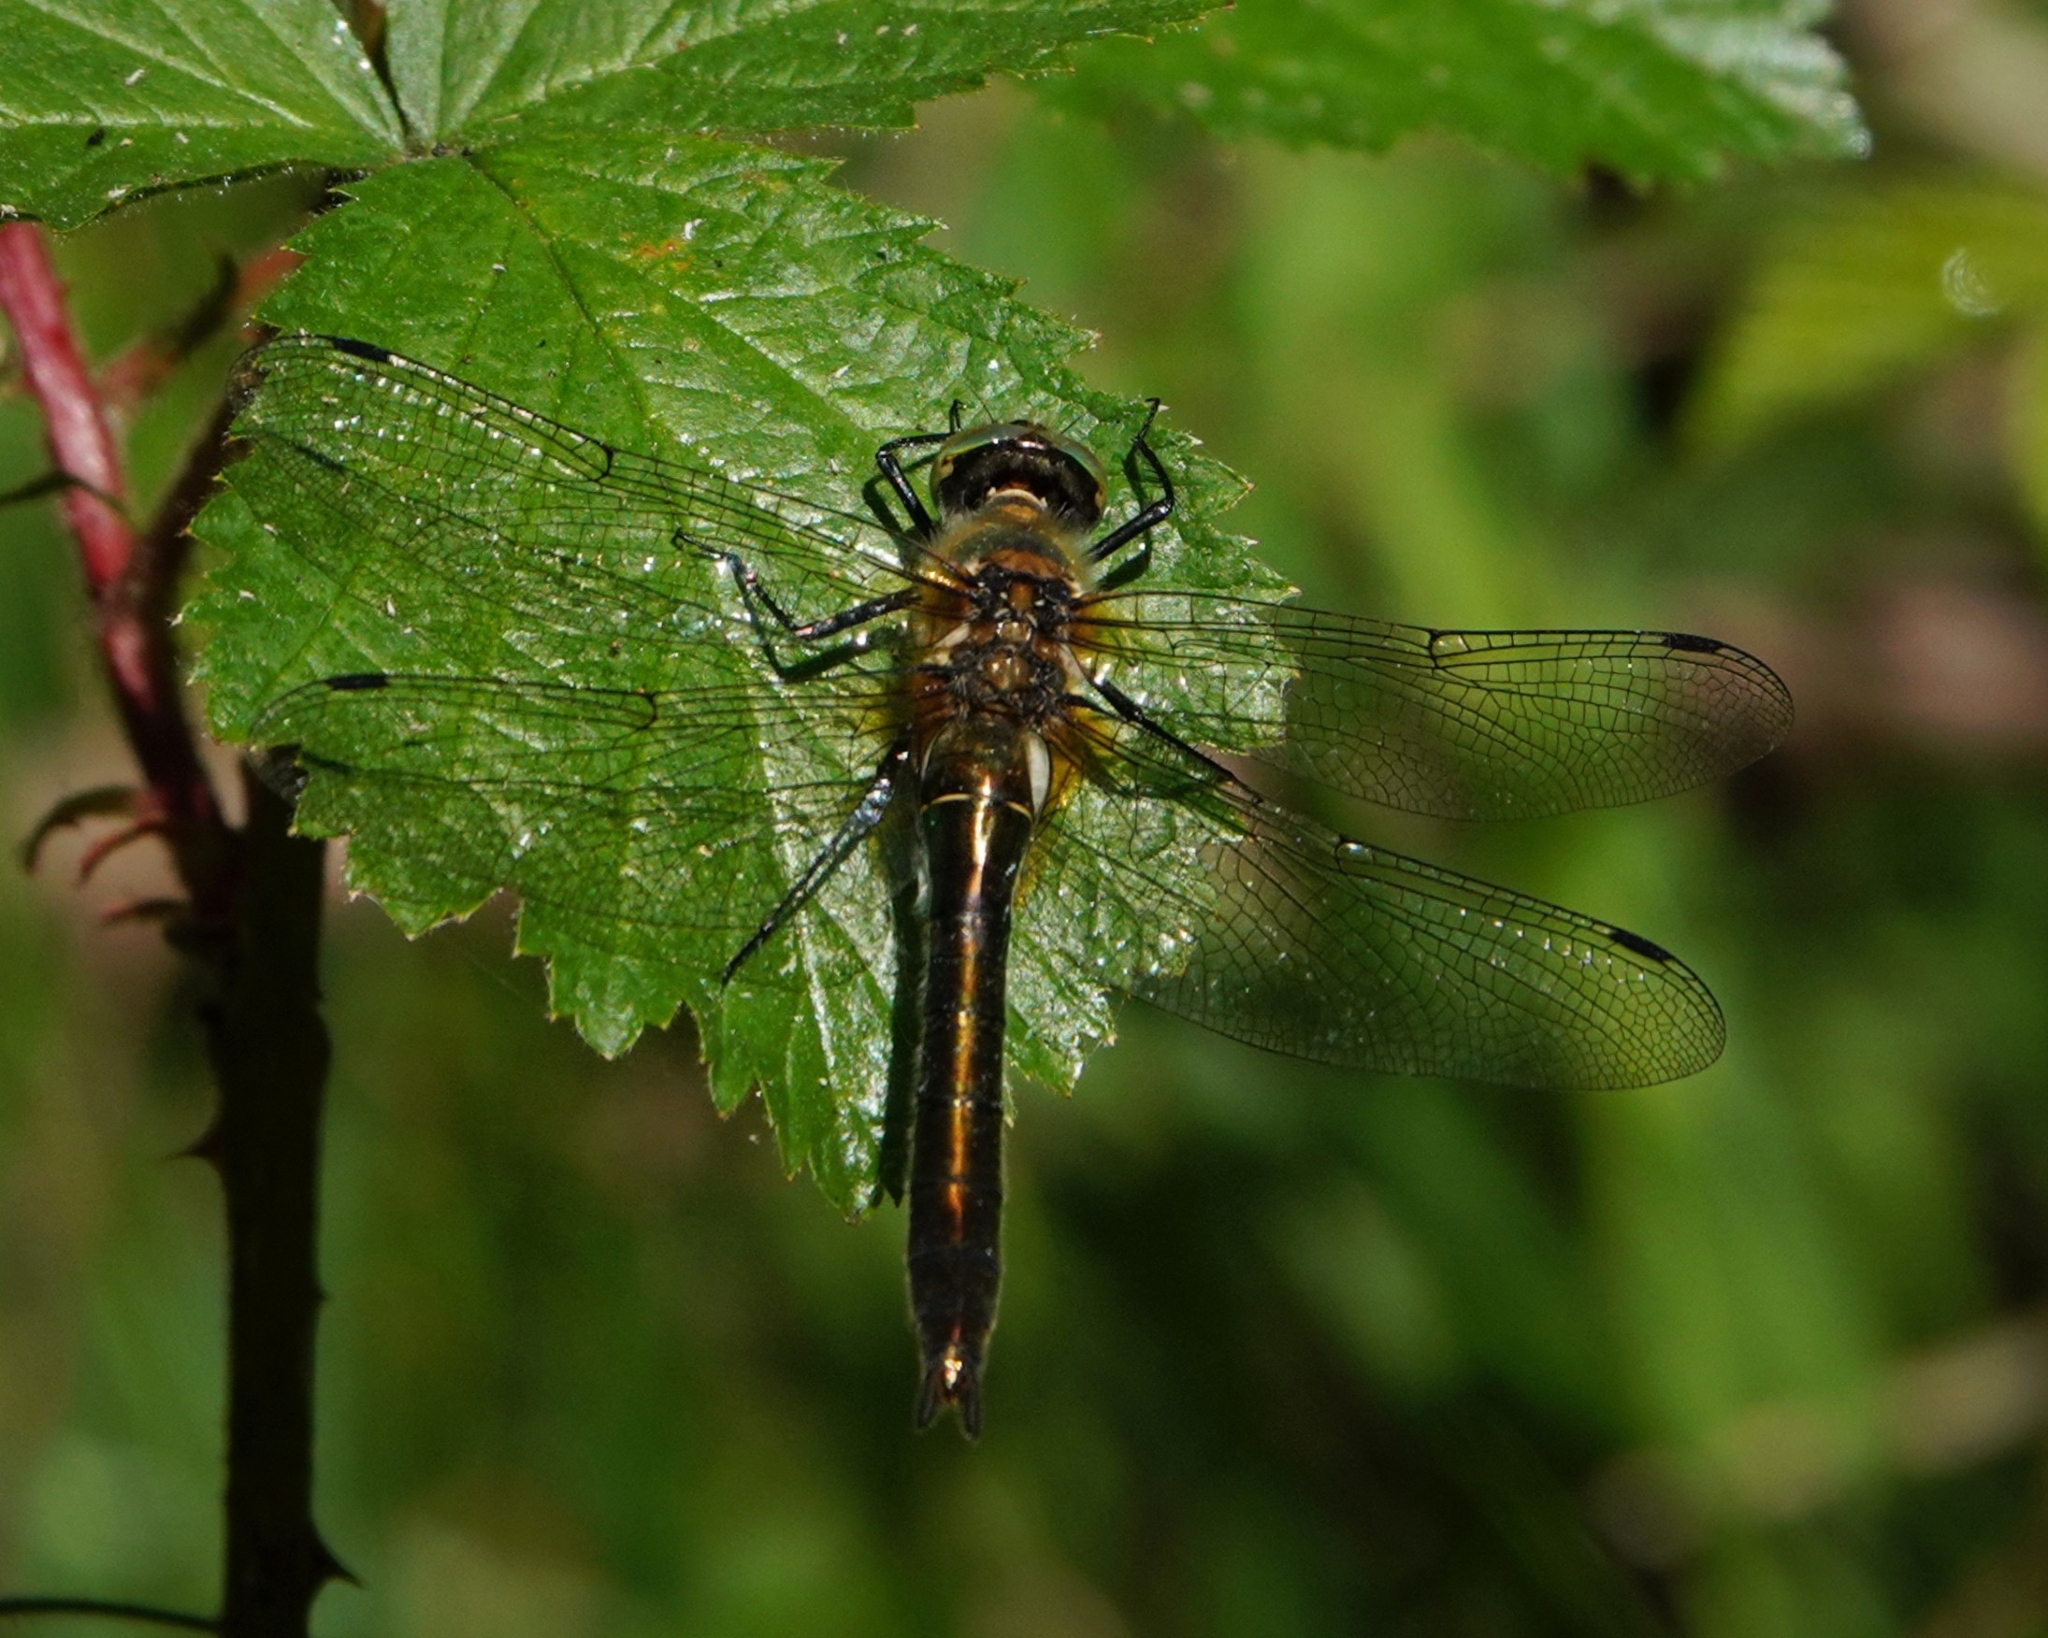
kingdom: Animalia
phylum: Arthropoda
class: Insecta
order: Odonata
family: Corduliidae
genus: Cordulia
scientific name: Cordulia aenea
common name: Downy emerald
